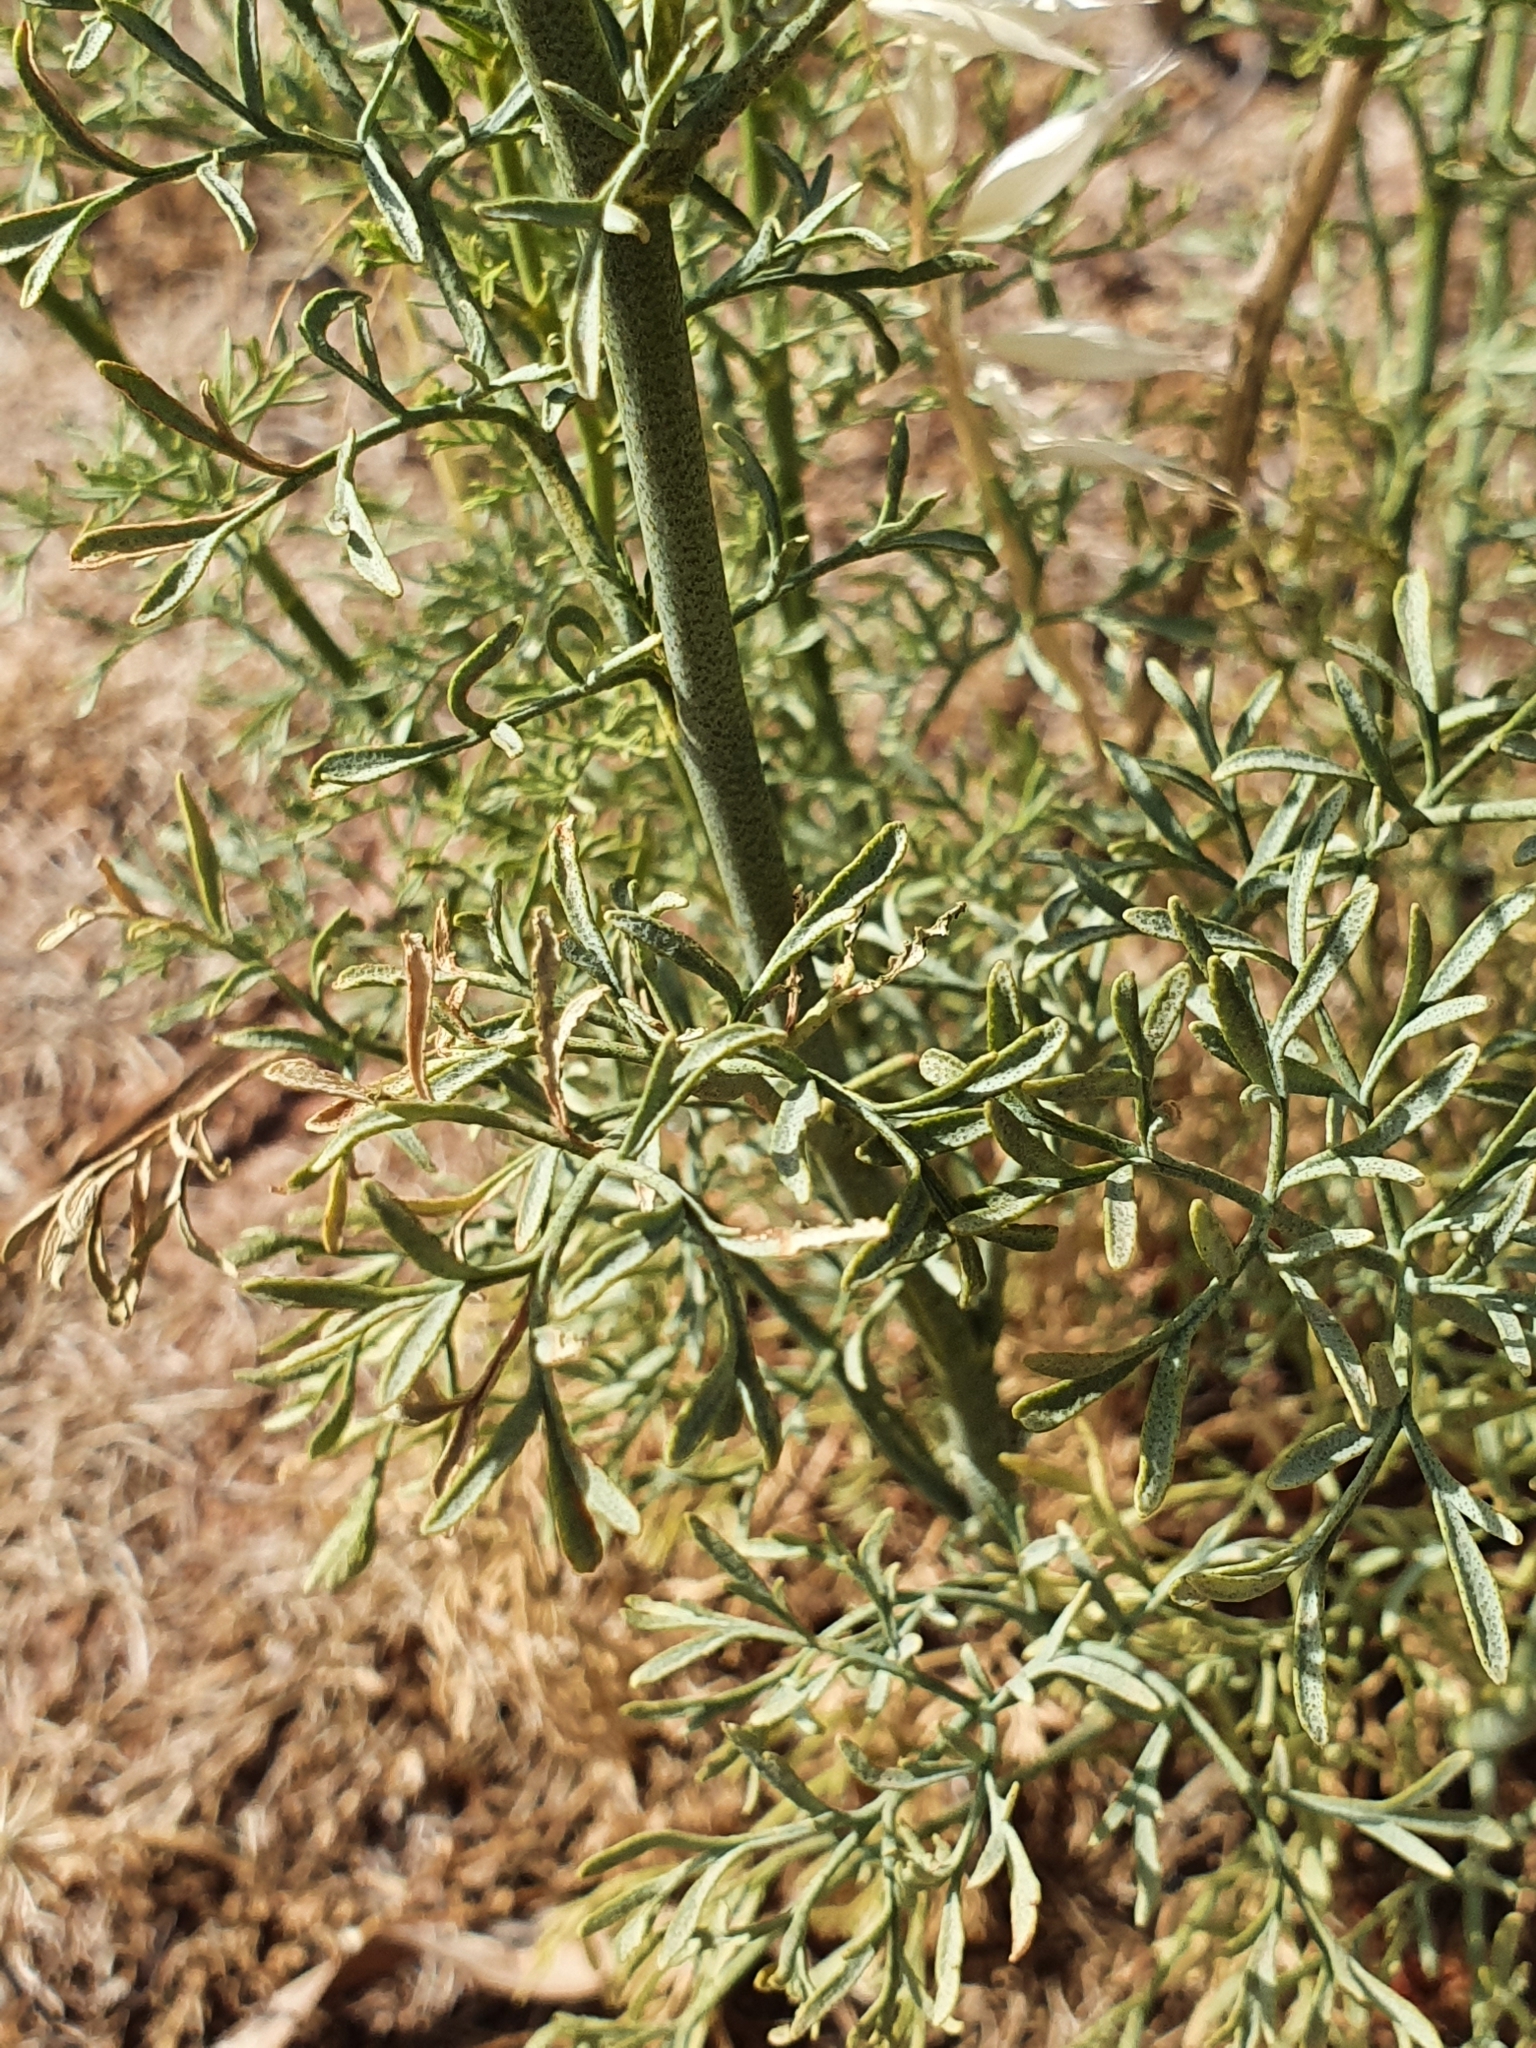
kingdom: Plantae
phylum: Tracheophyta
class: Magnoliopsida
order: Sapindales
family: Rutaceae
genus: Ruta
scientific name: Ruta montana
